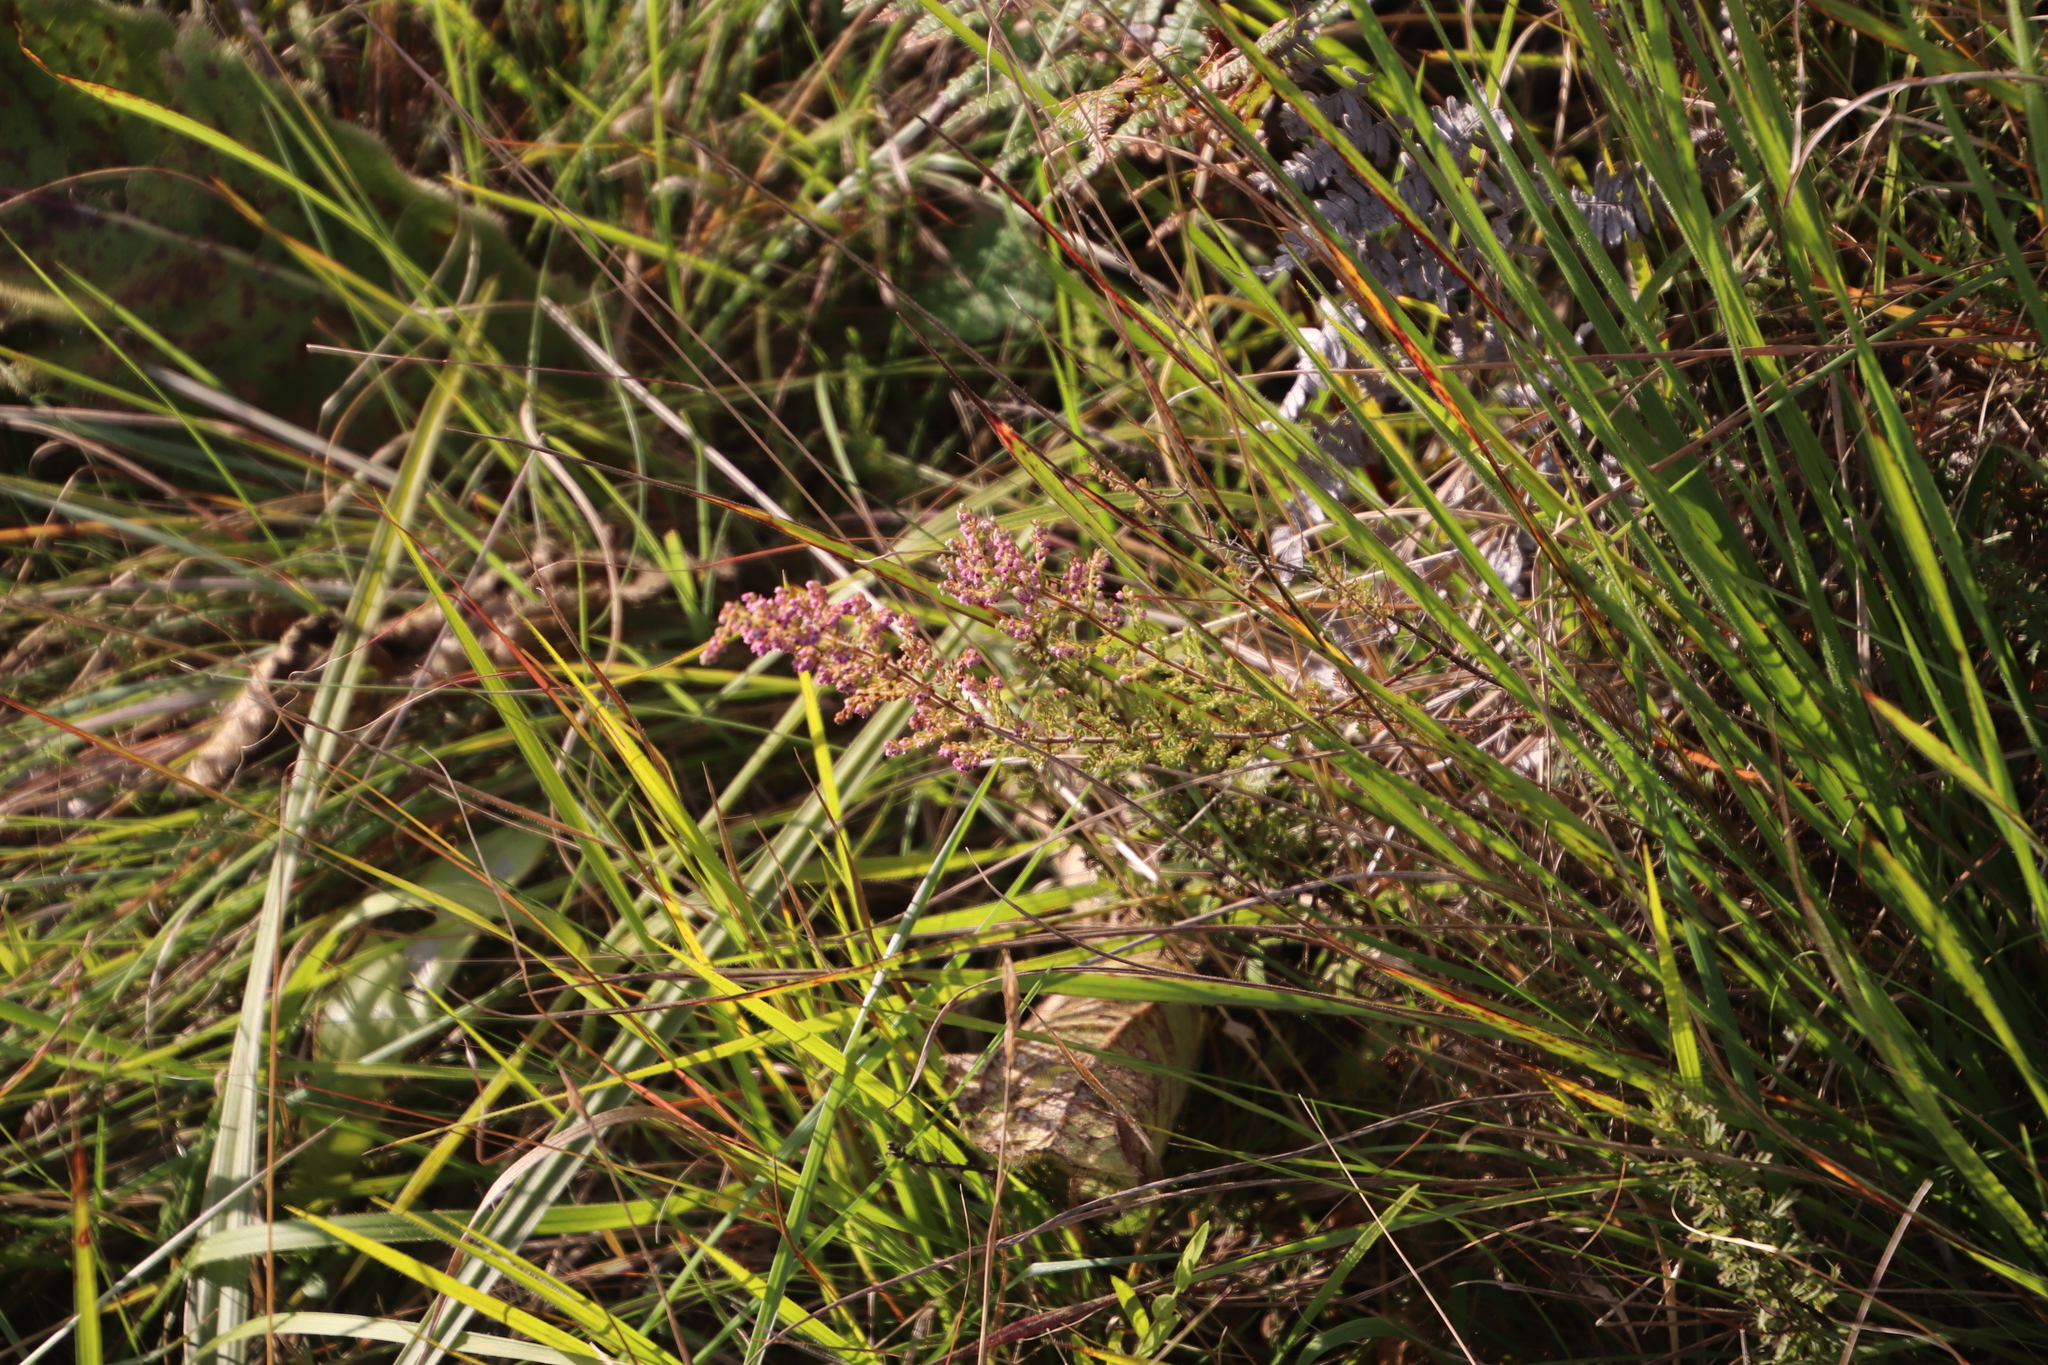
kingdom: Plantae
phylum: Tracheophyta
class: Magnoliopsida
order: Ericales
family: Ericaceae
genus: Erica
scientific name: Erica woodii
